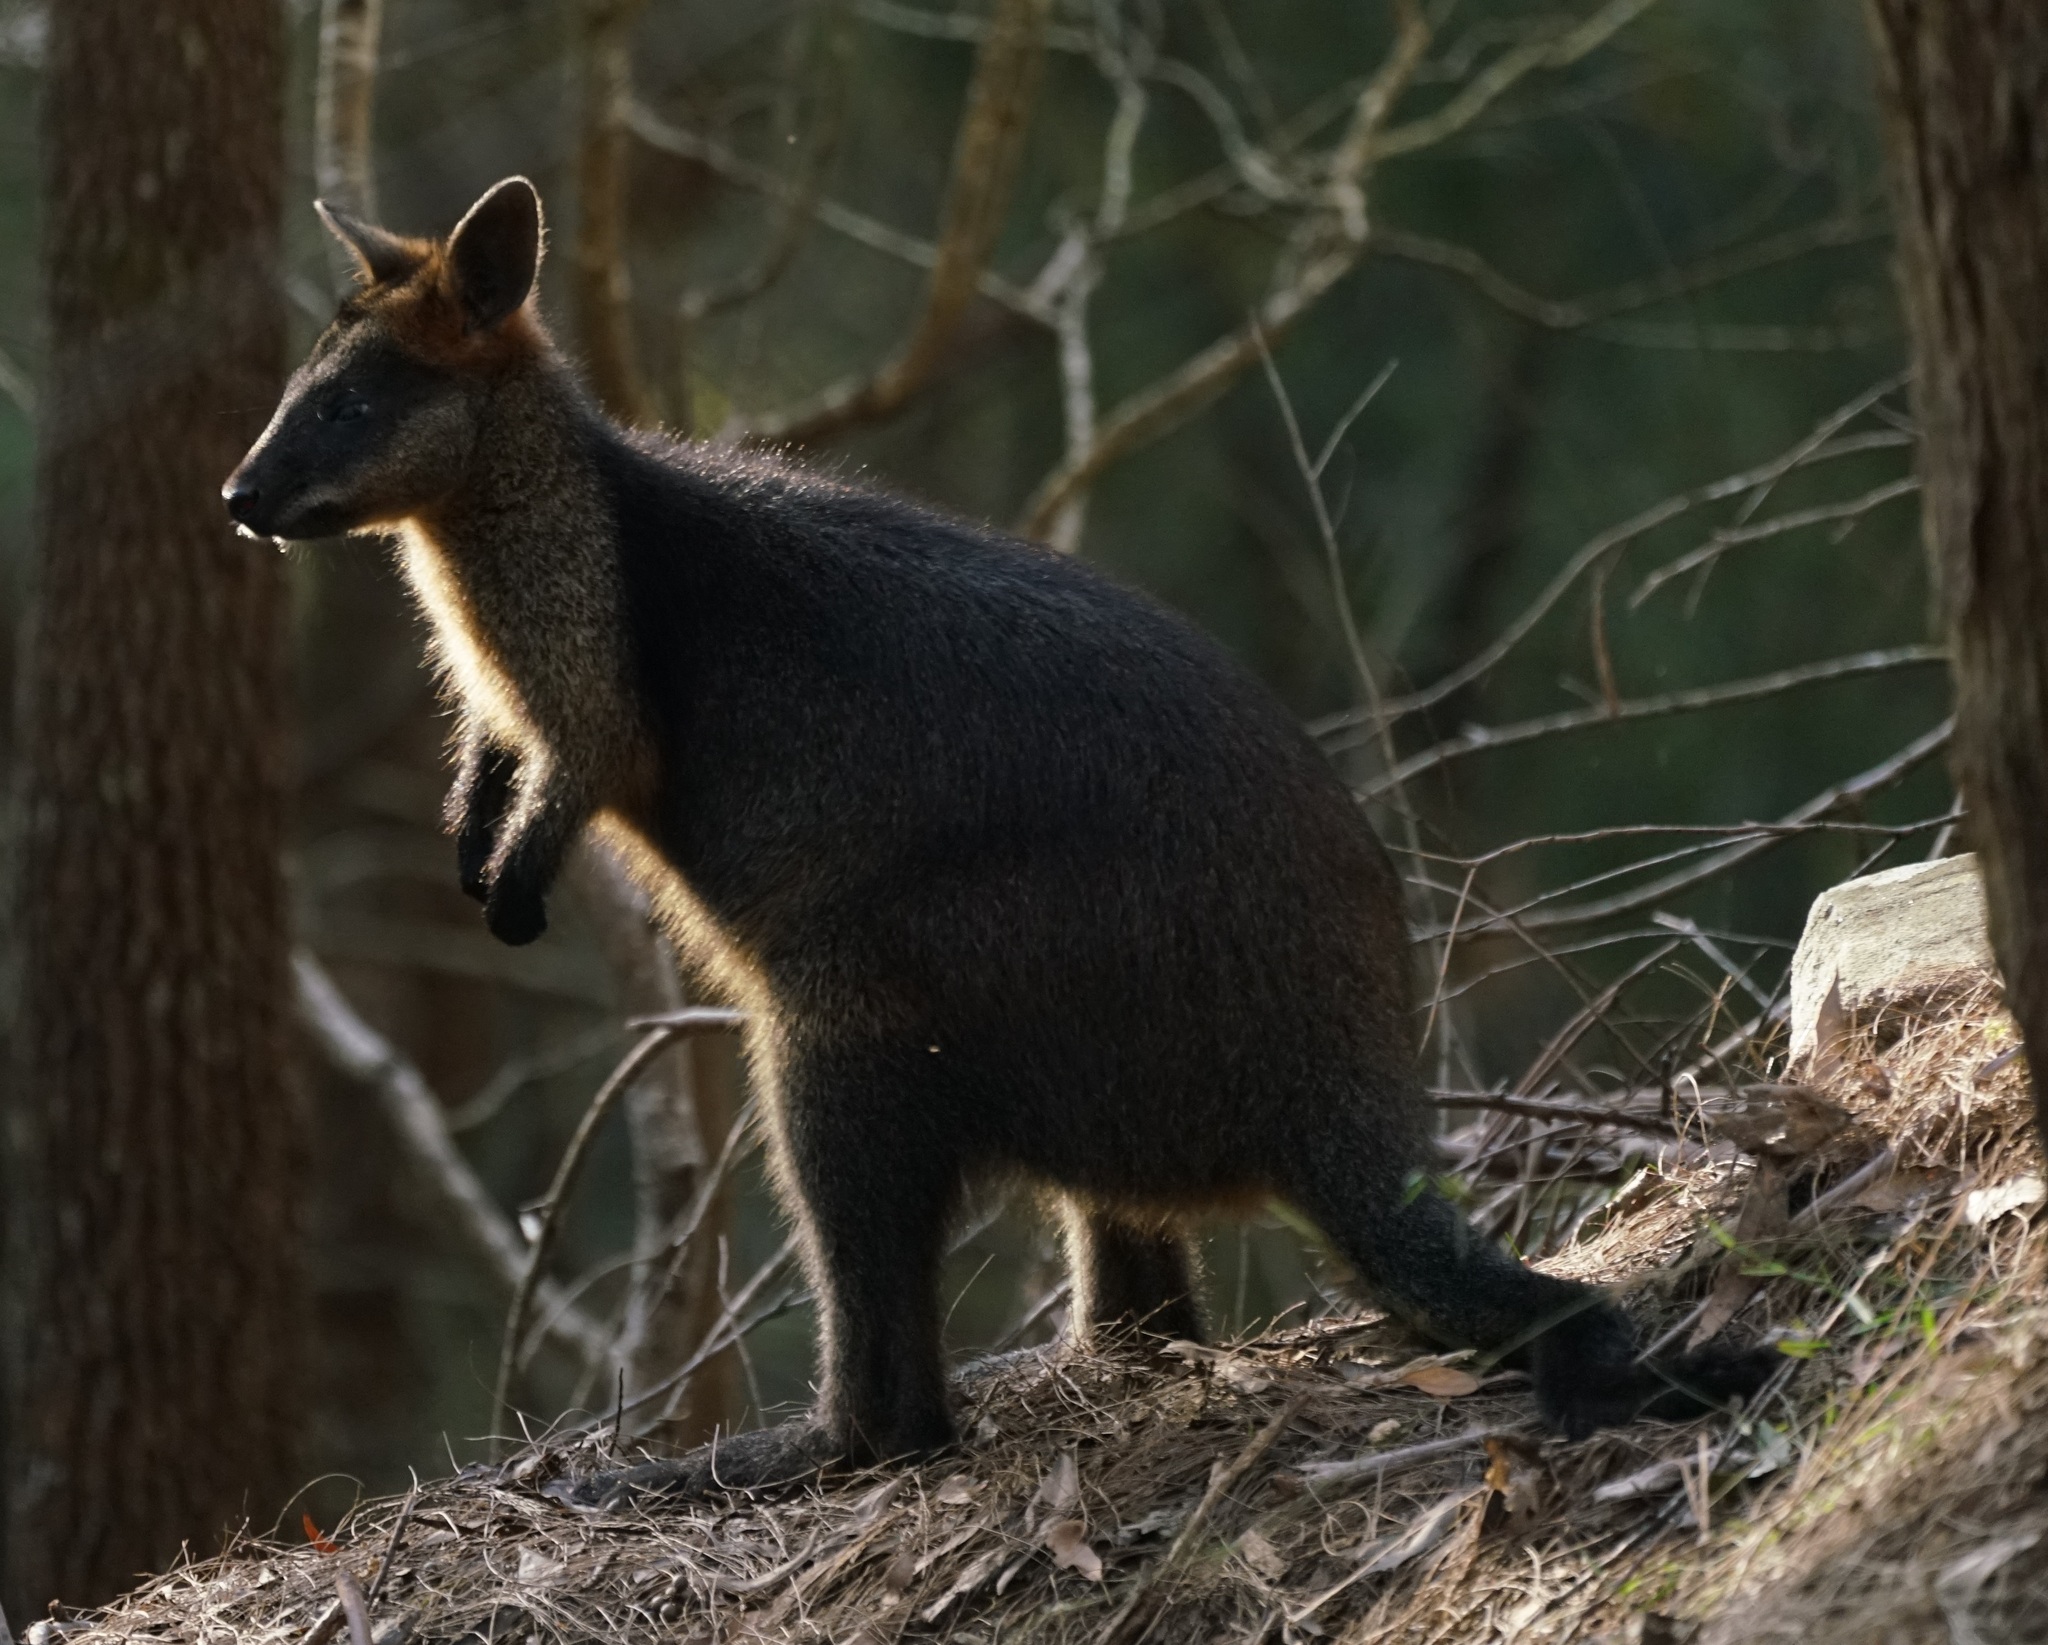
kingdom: Animalia
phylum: Chordata
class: Mammalia
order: Diprotodontia
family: Macropodidae
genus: Wallabia
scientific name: Wallabia bicolor
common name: Swamp wallaby
